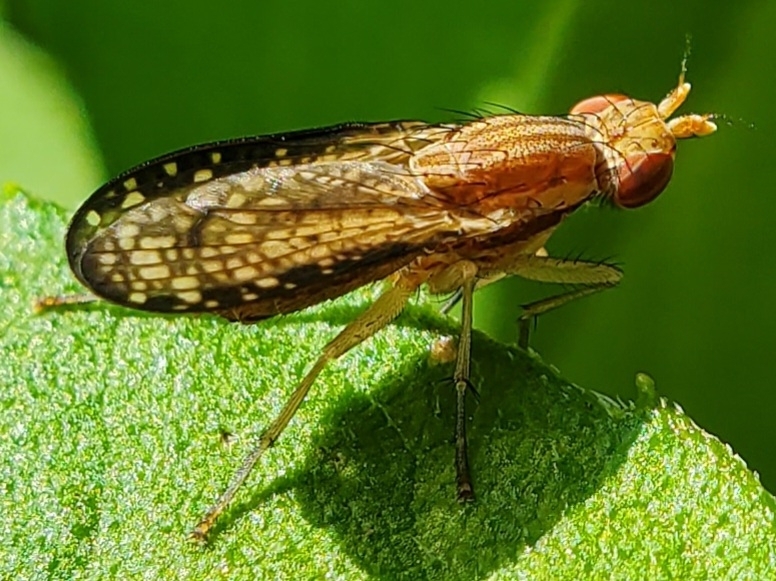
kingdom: Animalia
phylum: Arthropoda
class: Insecta
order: Diptera
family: Sciomyzidae
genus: Trypetoptera
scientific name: Trypetoptera canadensis
